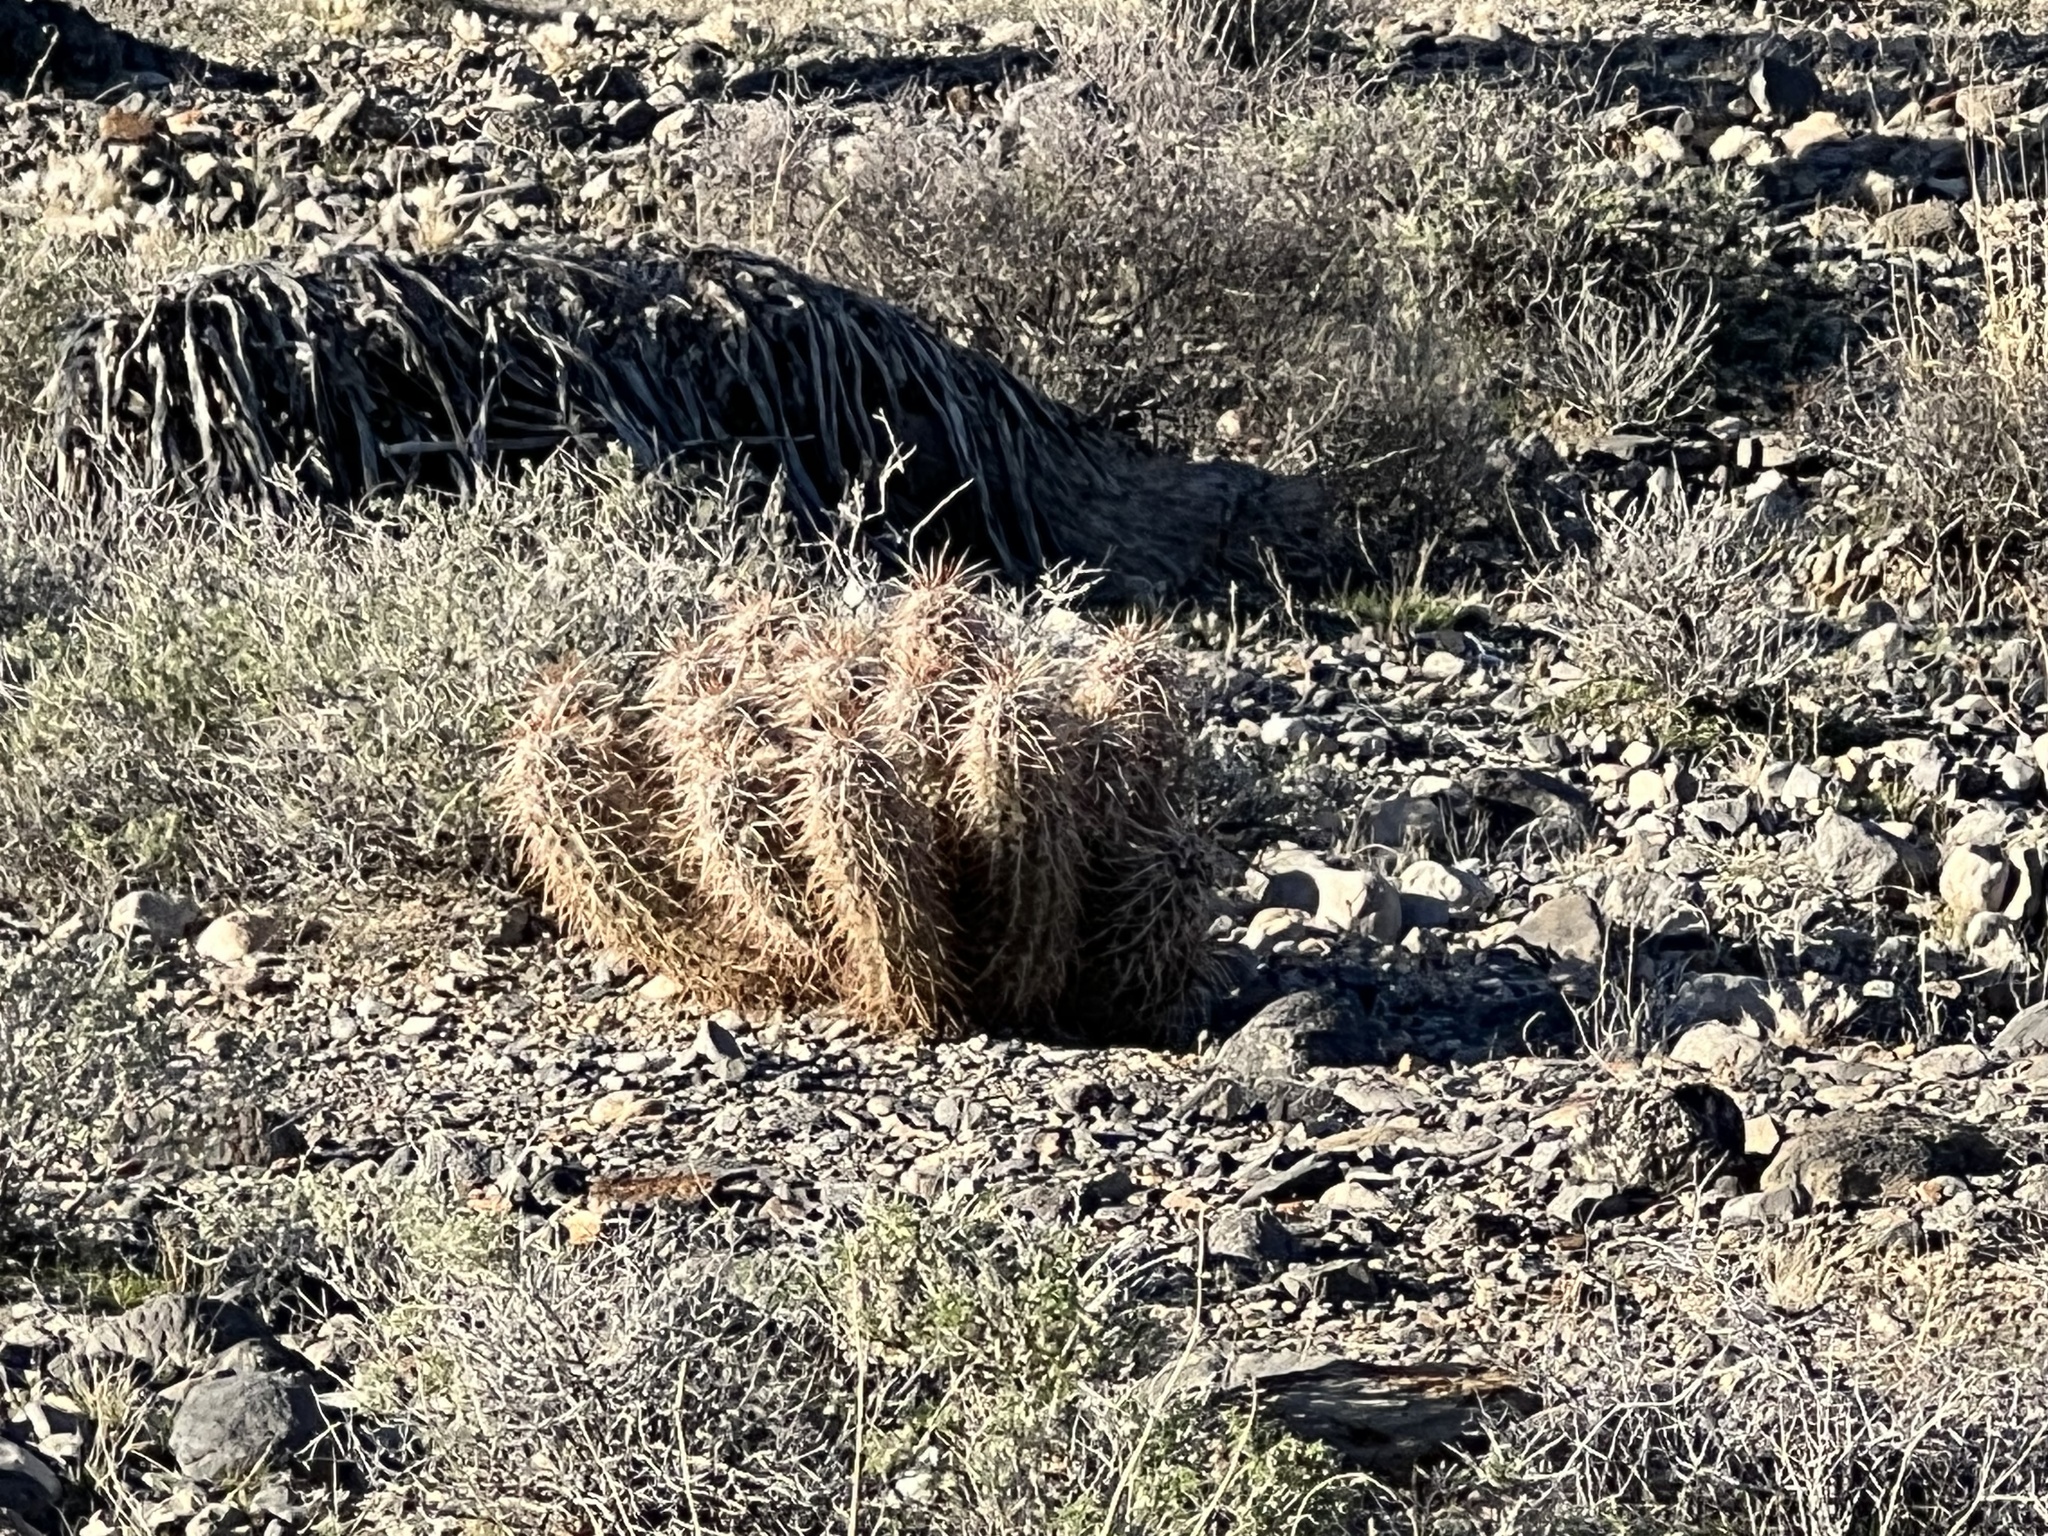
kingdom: Plantae
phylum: Tracheophyta
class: Magnoliopsida
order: Caryophyllales
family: Cactaceae
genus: Echinocereus
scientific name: Echinocereus engelmannii
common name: Engelmann's hedgehog cactus
